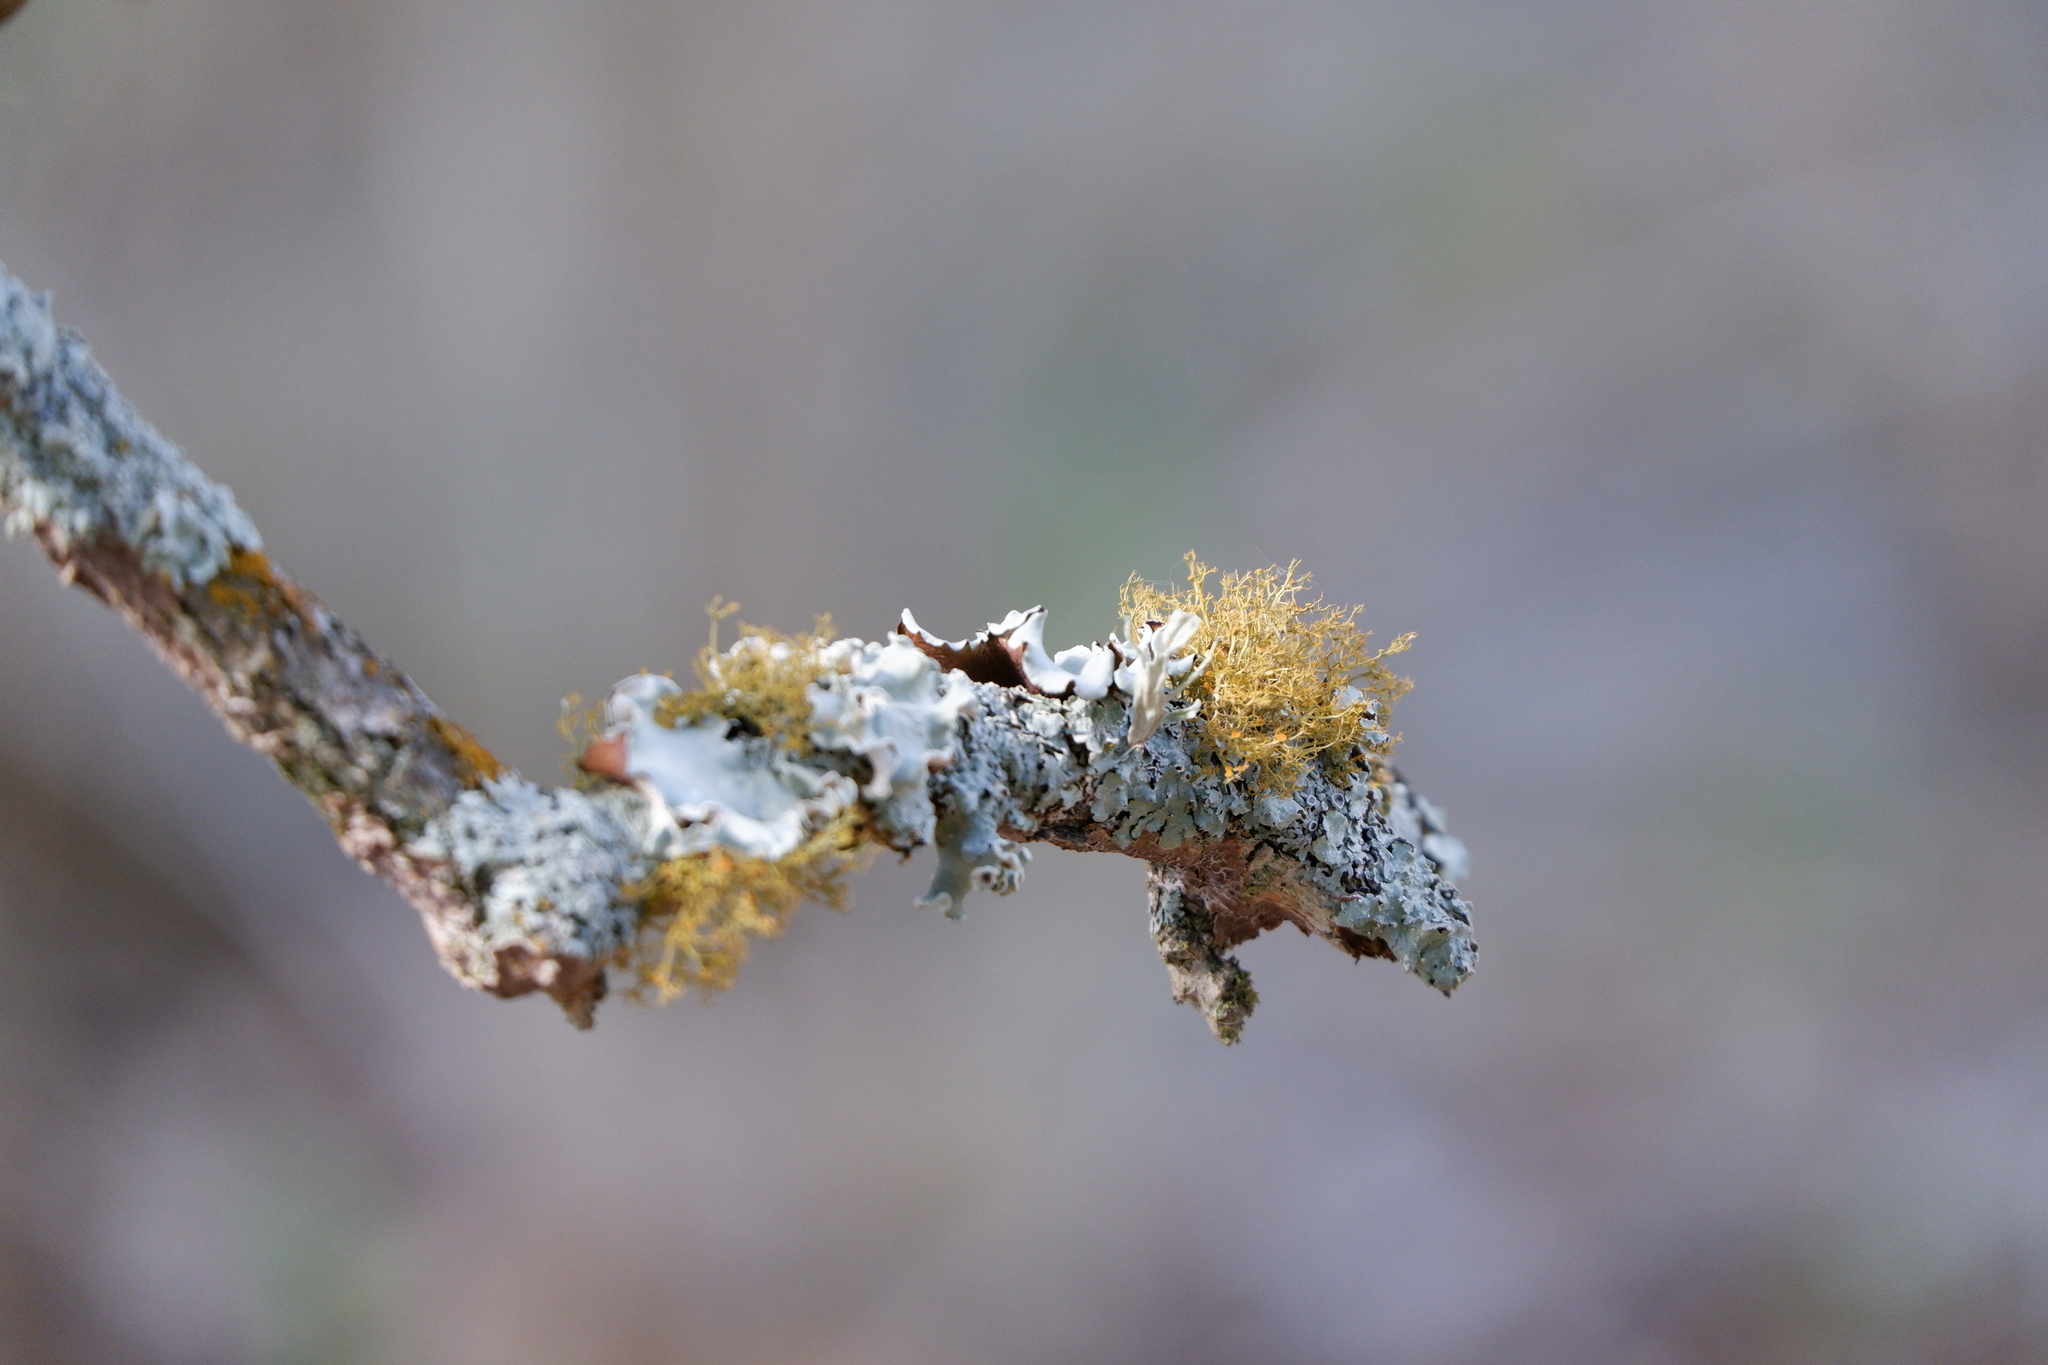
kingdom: Fungi
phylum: Ascomycota
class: Lecanoromycetes
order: Teloschistales
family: Teloschistaceae
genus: Teloschistes
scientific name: Teloschistes exilis
